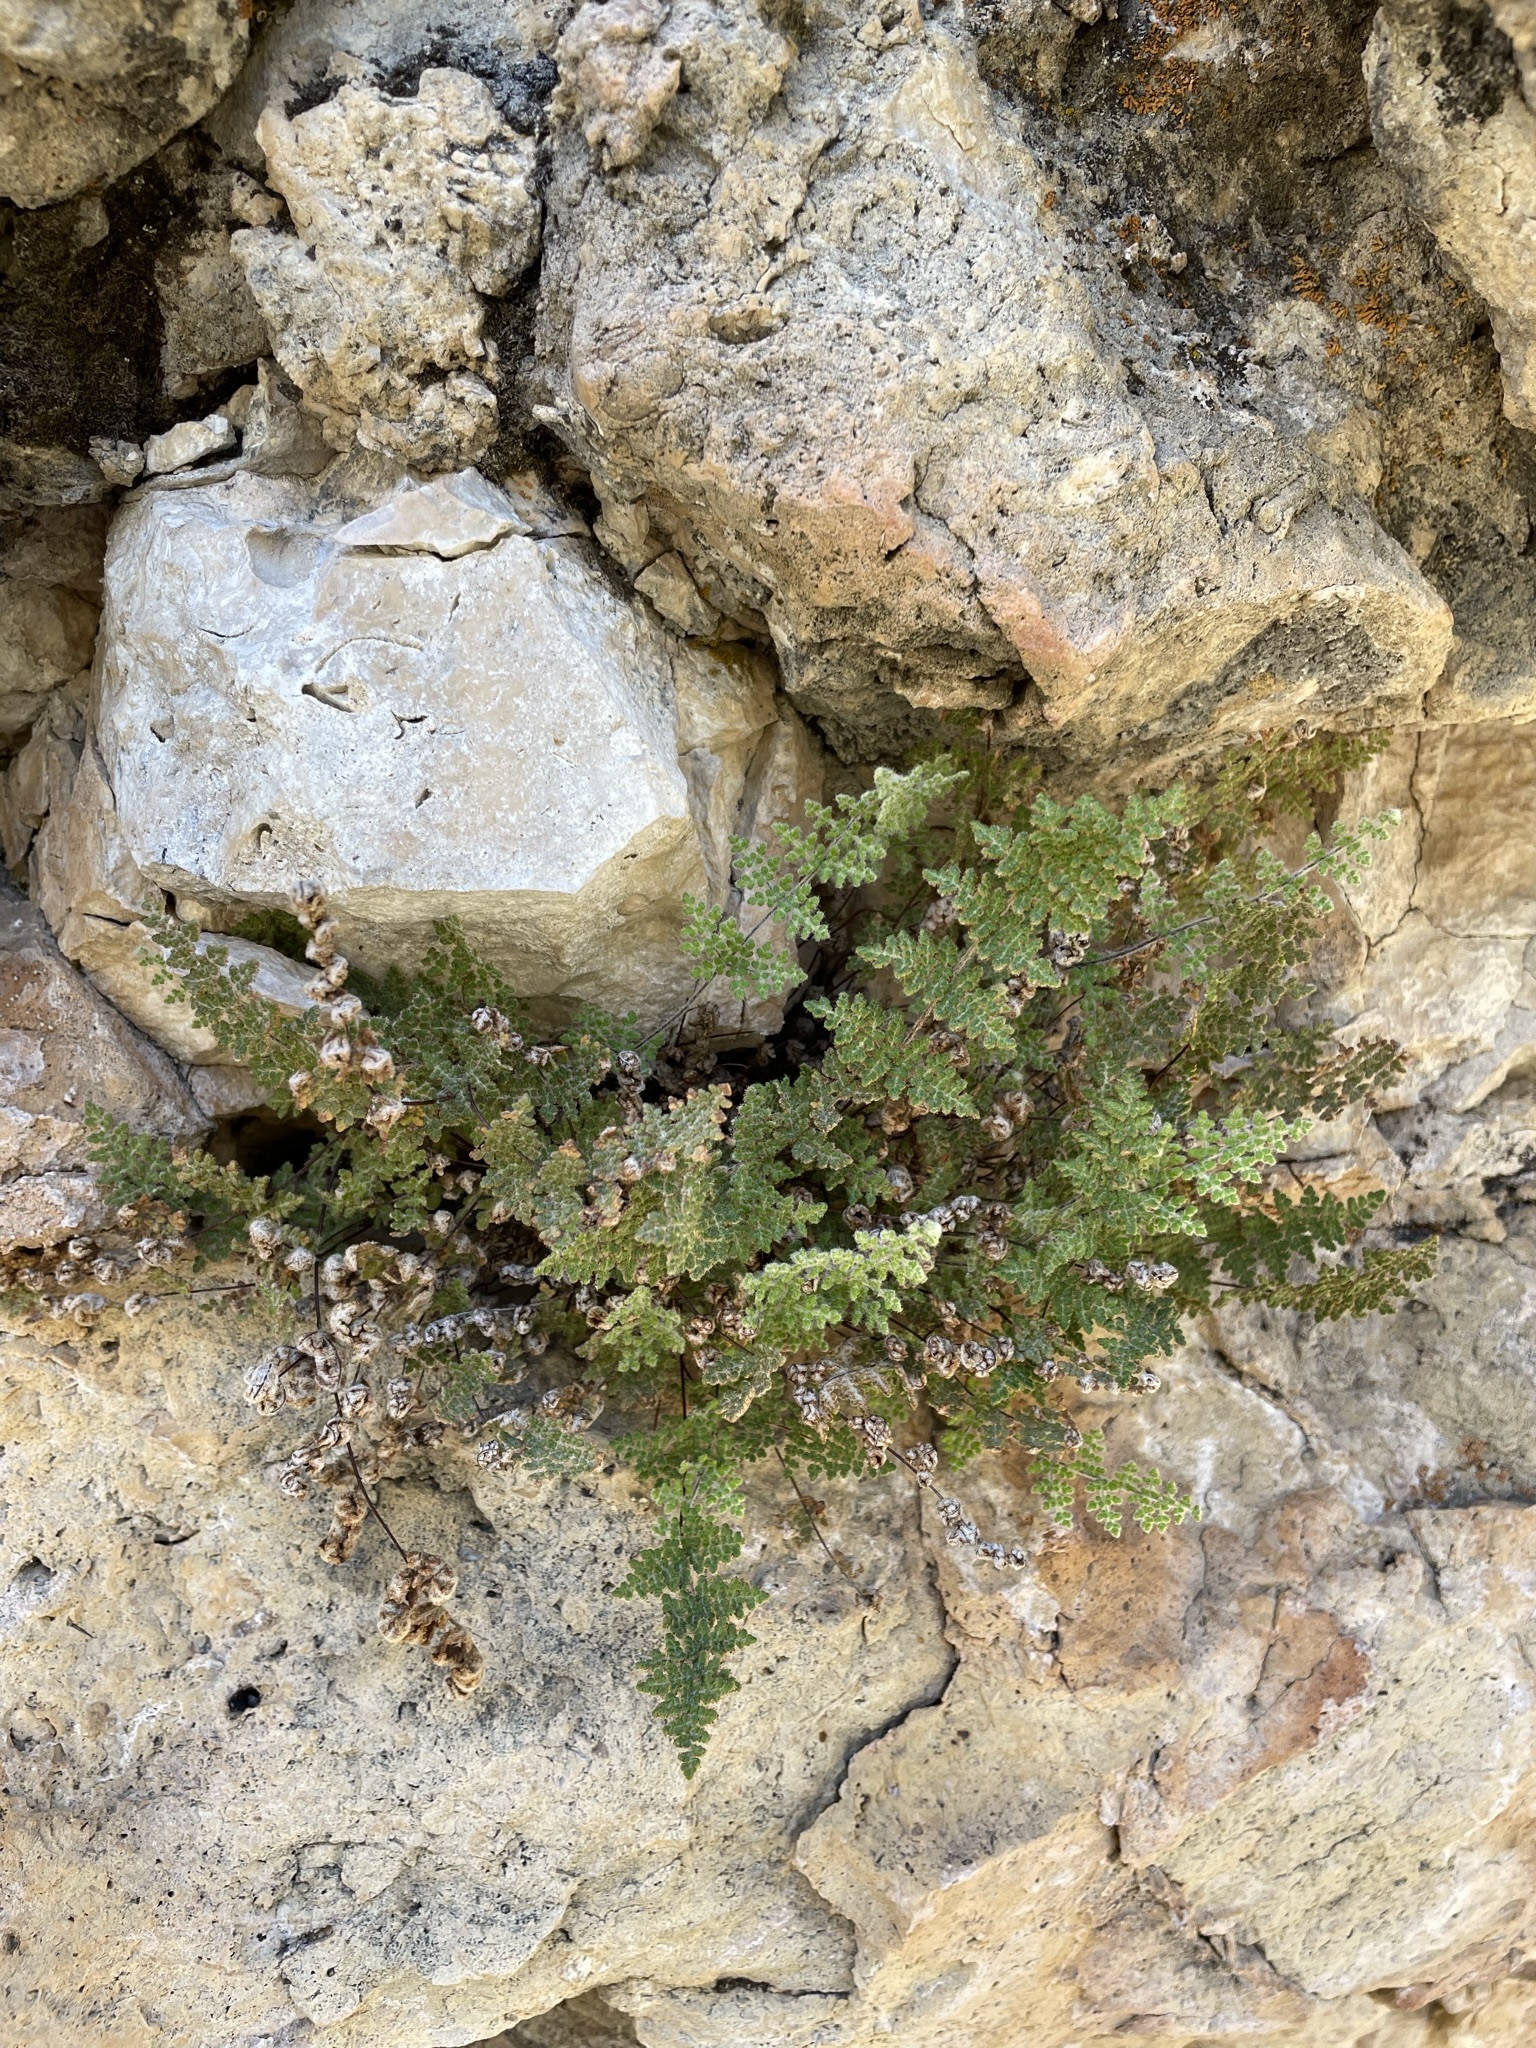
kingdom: Plantae
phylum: Tracheophyta
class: Polypodiopsida
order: Polypodiales
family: Pteridaceae
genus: Myriopteris
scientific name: Myriopteris gracilis
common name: Fee's lip fern
